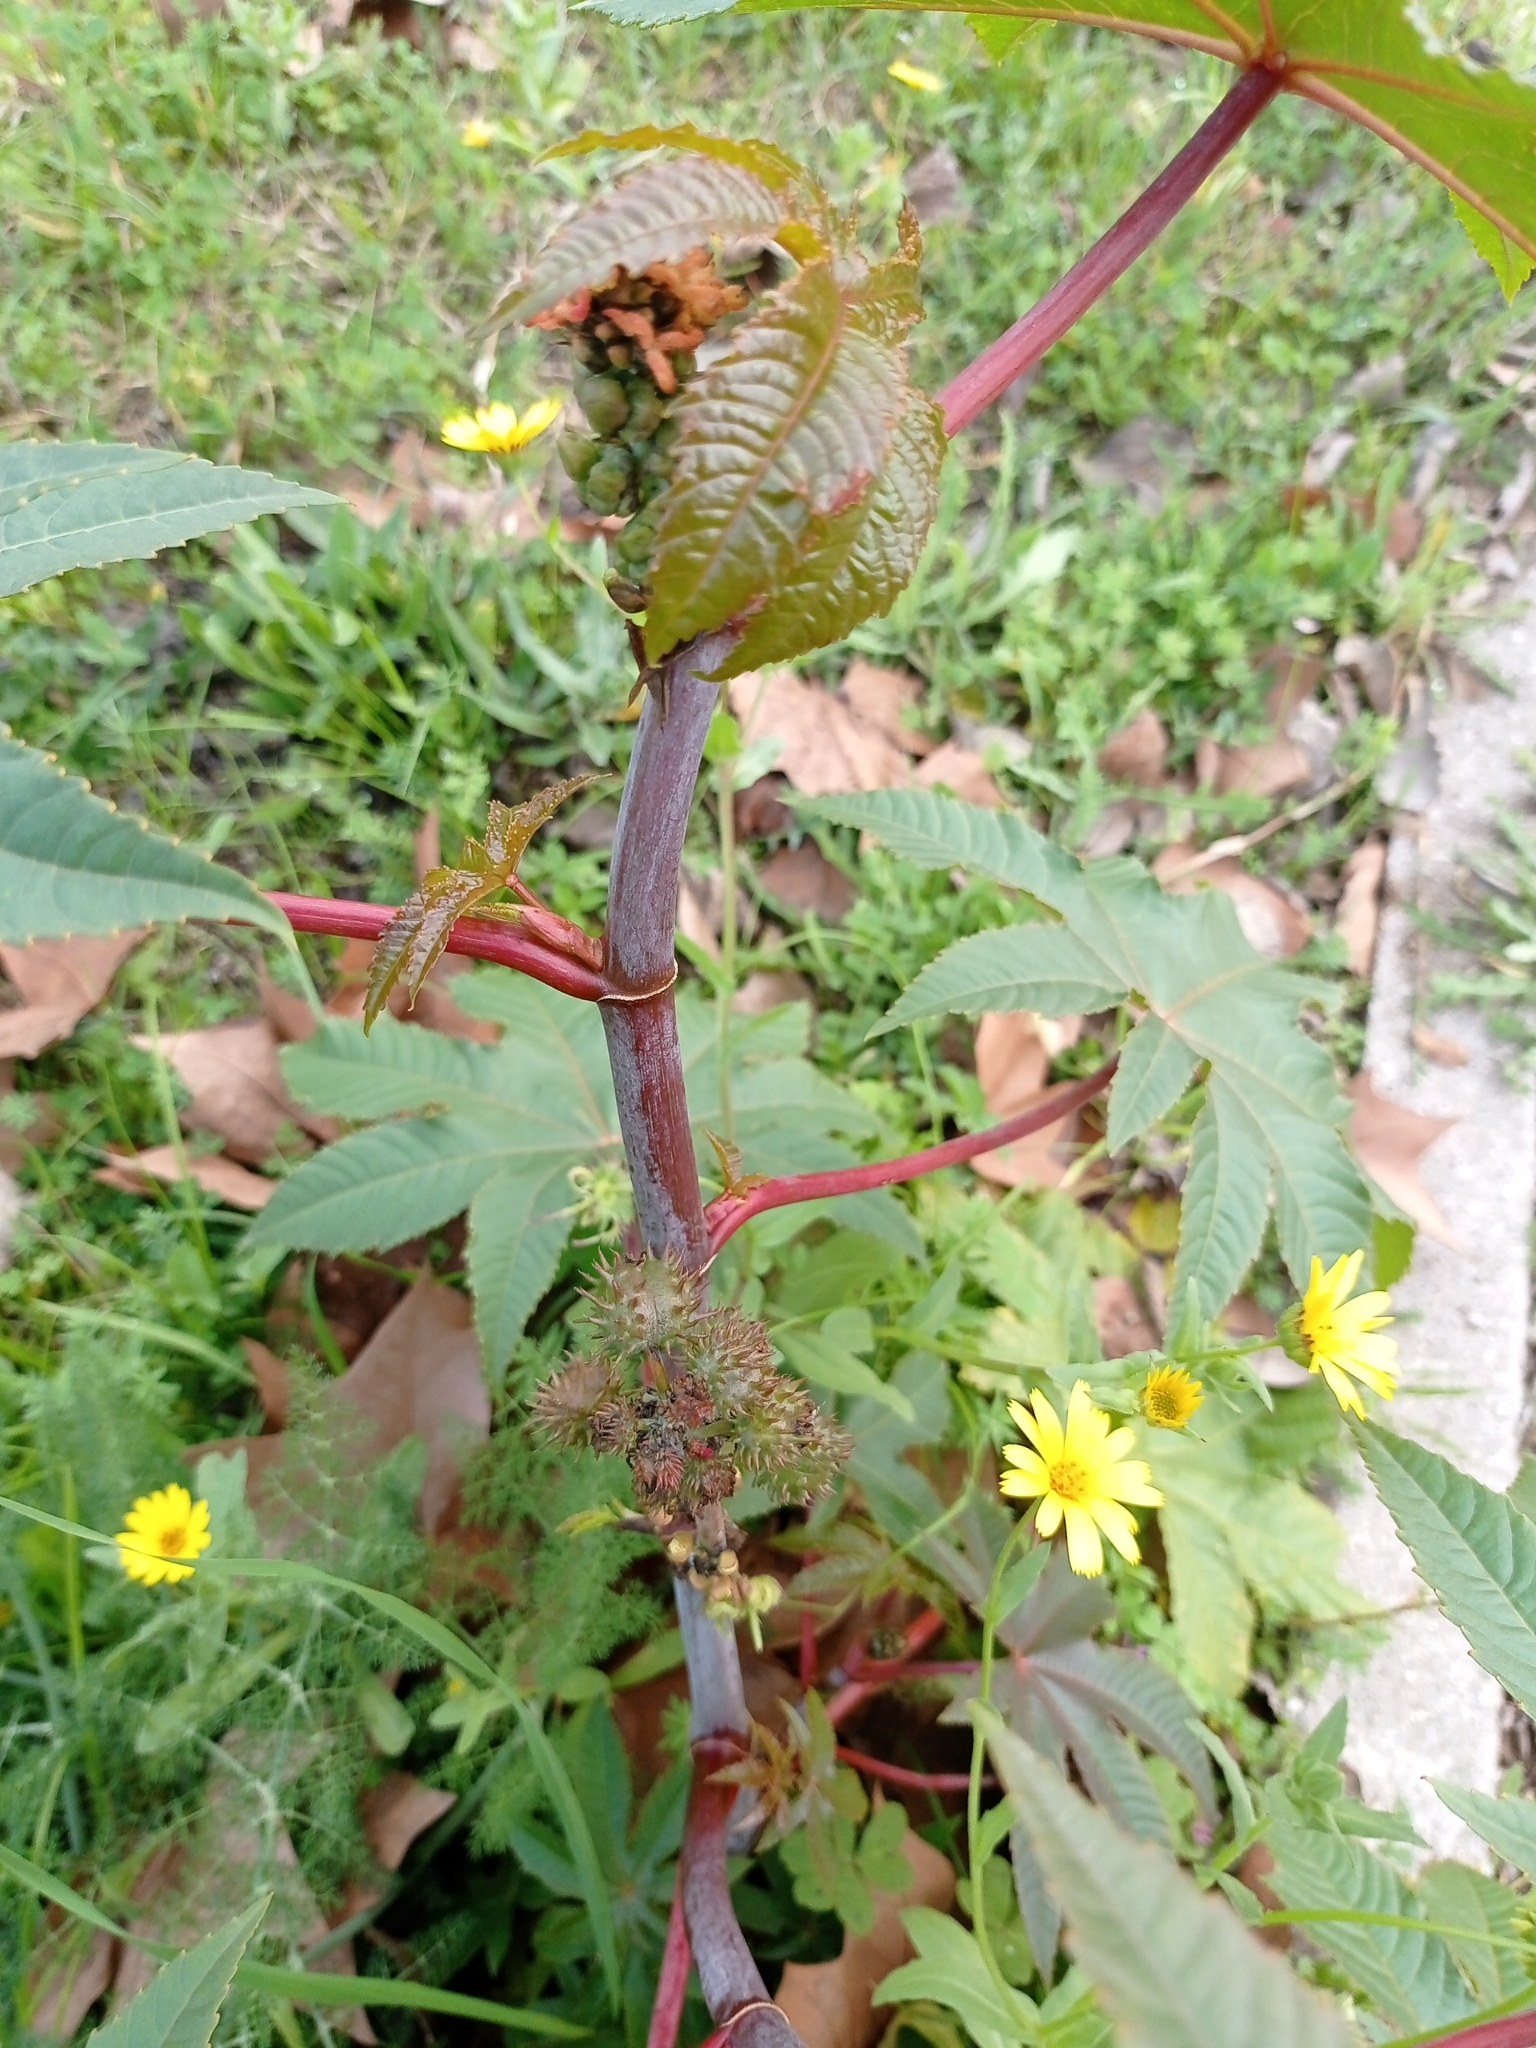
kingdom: Plantae
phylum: Tracheophyta
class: Magnoliopsida
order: Malpighiales
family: Euphorbiaceae
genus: Ricinus
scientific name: Ricinus communis
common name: Castor-oil-plant
